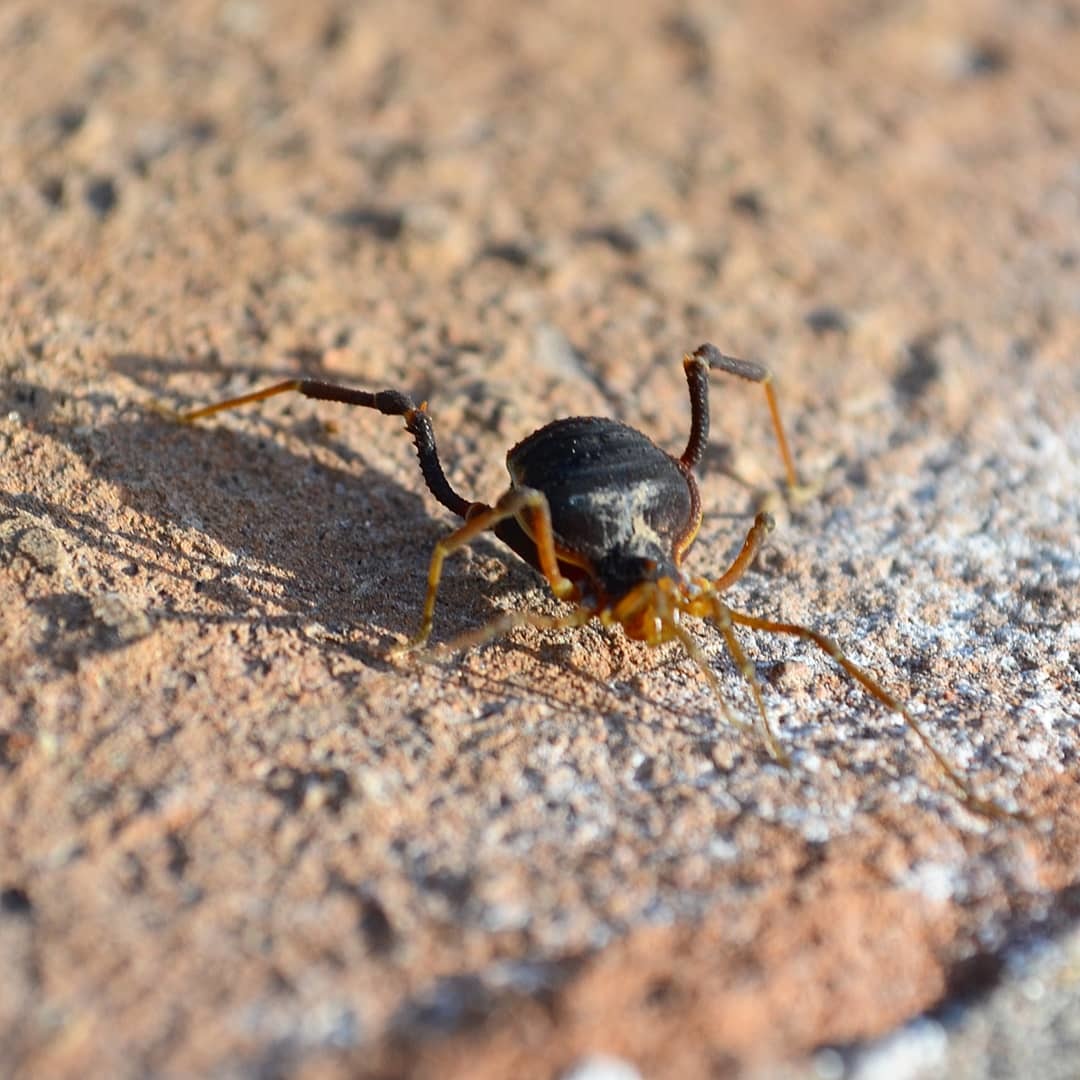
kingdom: Animalia
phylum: Arthropoda
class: Arachnida
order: Opiliones
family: Gonyleptidae
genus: Acanthopachylus
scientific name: Acanthopachylus robustus
